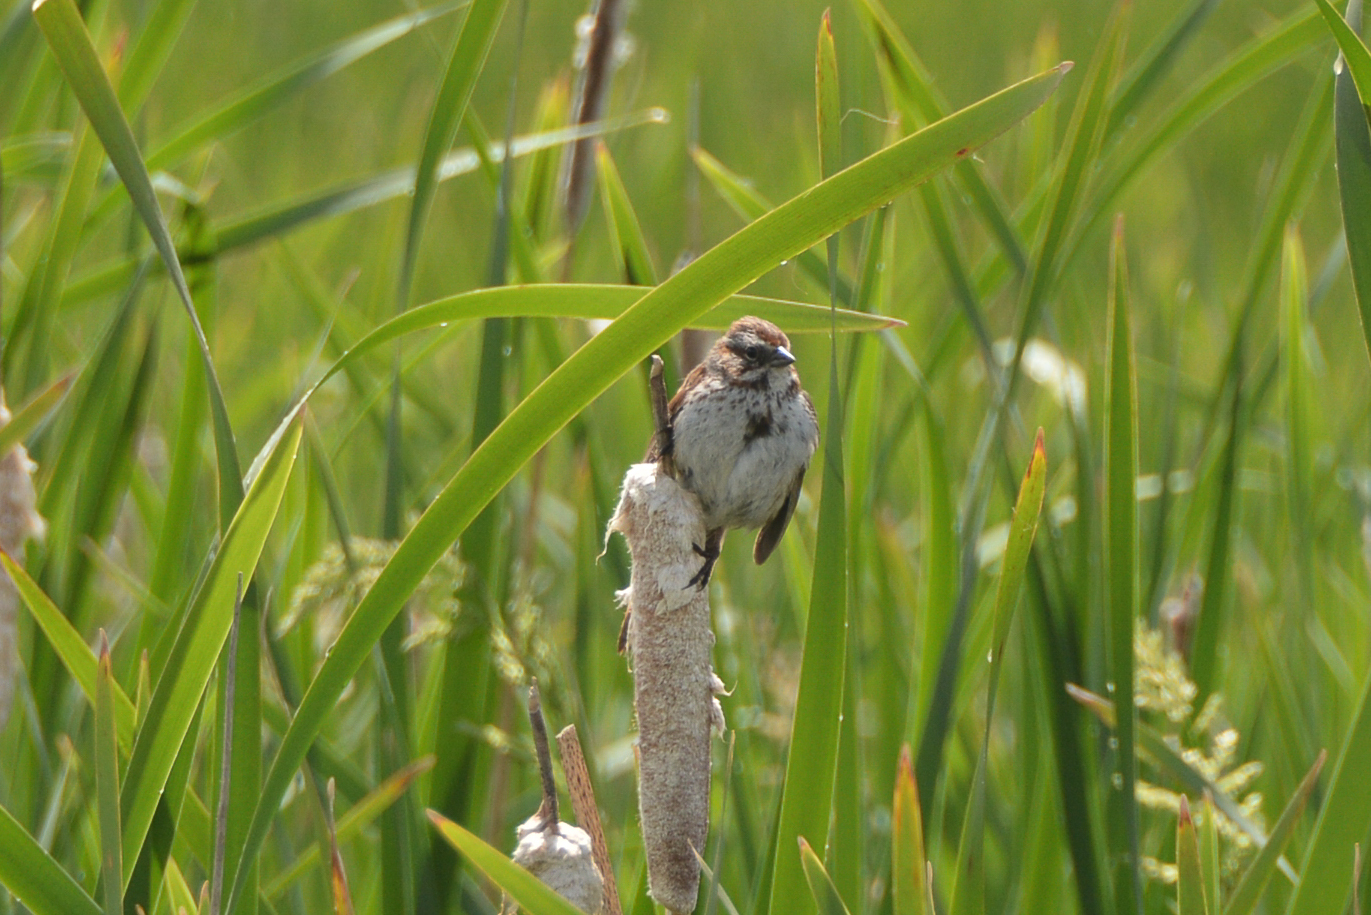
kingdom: Animalia
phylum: Chordata
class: Aves
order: Passeriformes
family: Passerellidae
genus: Melospiza
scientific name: Melospiza melodia
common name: Song sparrow
